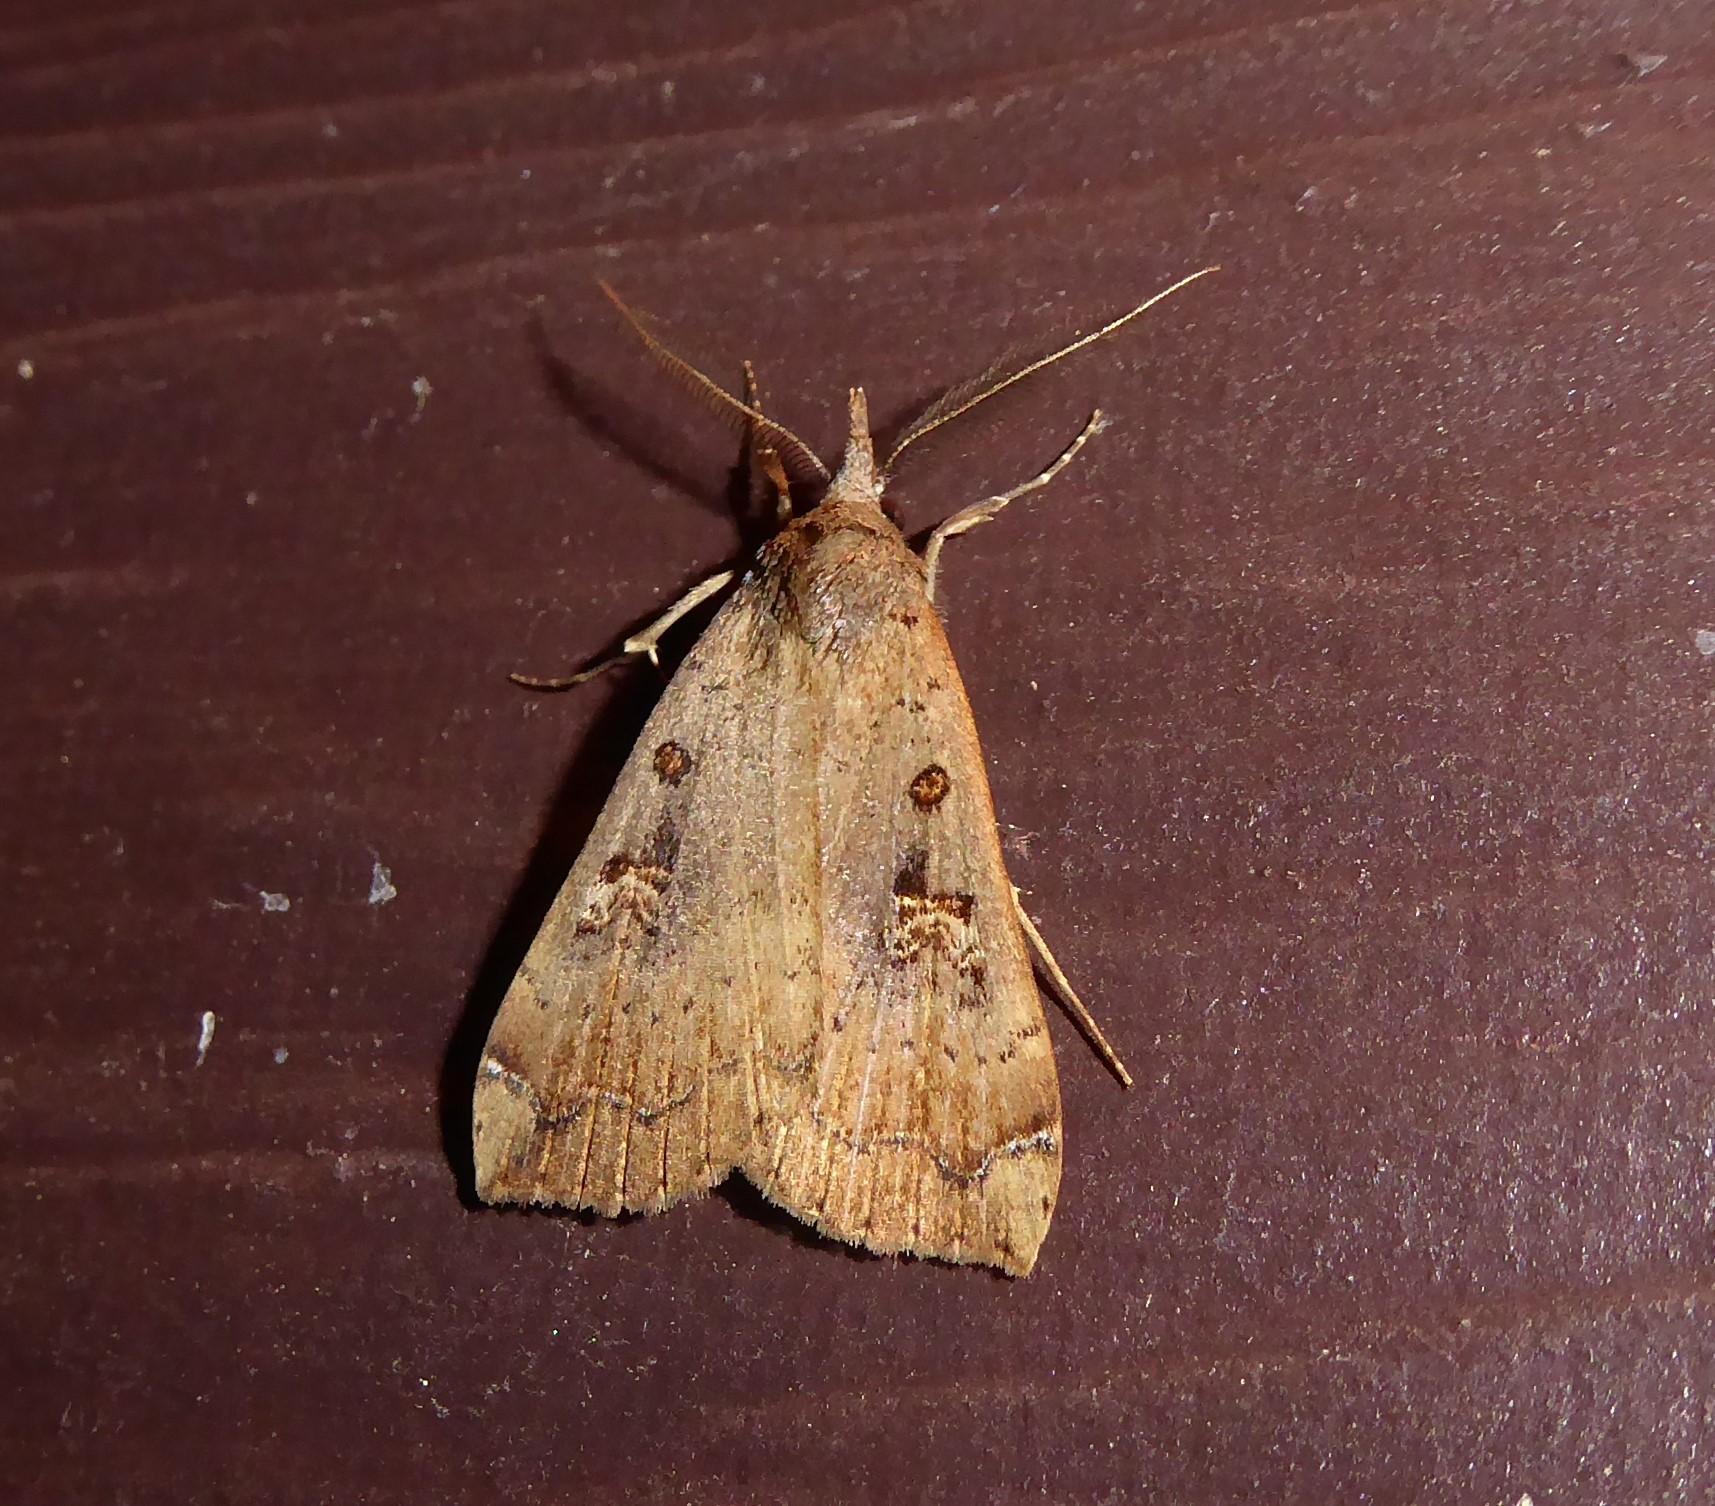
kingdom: Animalia
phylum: Arthropoda
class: Insecta
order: Lepidoptera
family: Erebidae
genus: Rhapsa
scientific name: Rhapsa scotosialis
